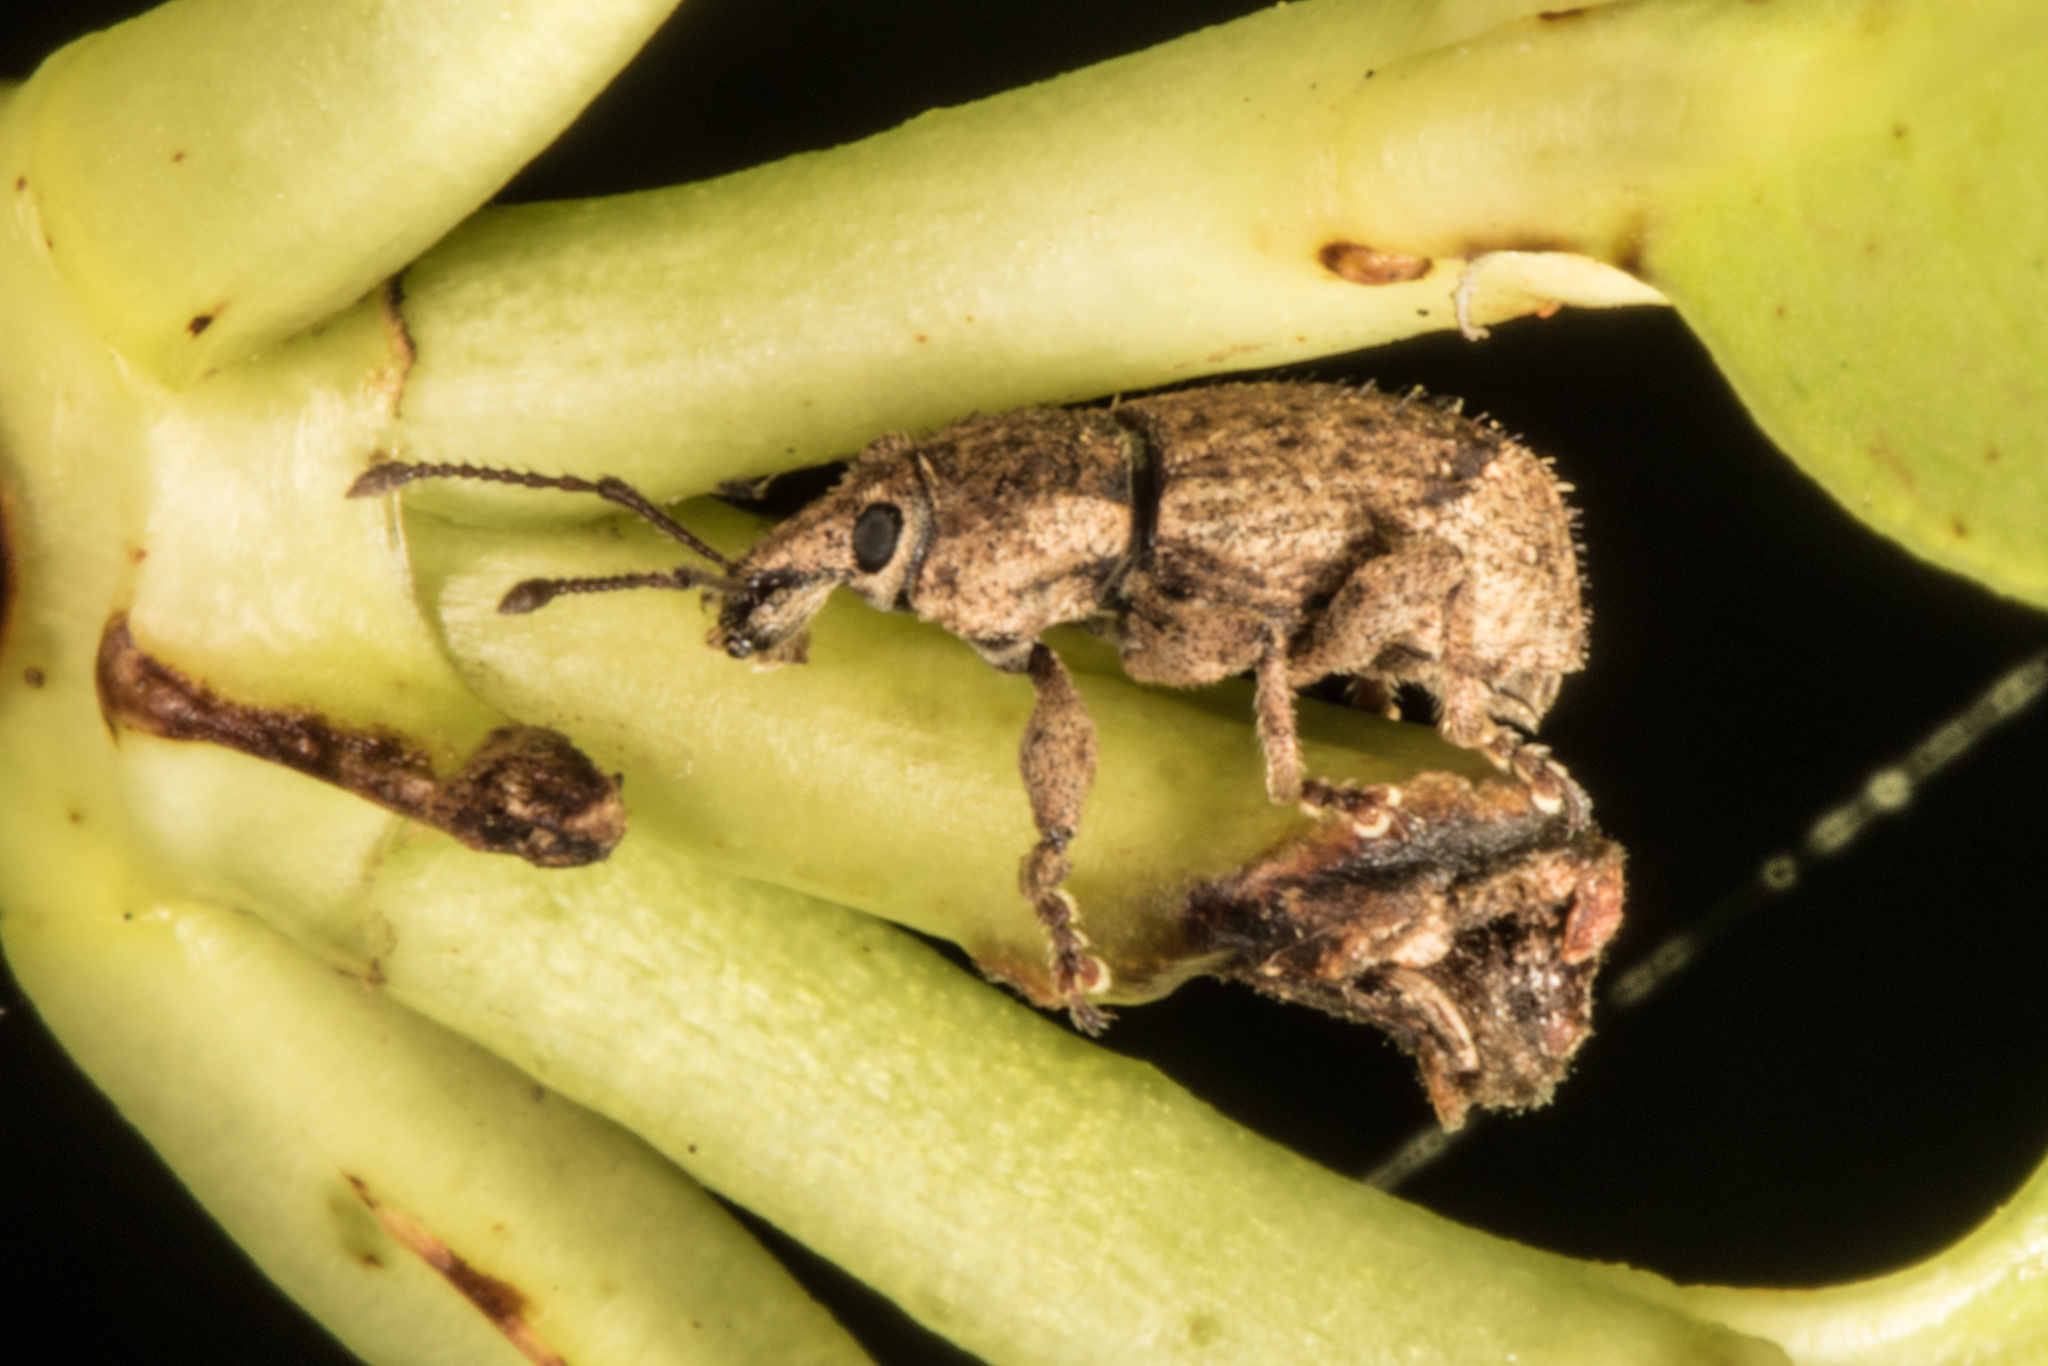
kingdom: Animalia
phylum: Arthropoda
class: Insecta
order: Coleoptera
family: Curculionidae
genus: Chalepistes
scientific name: Chalepistes compressus
